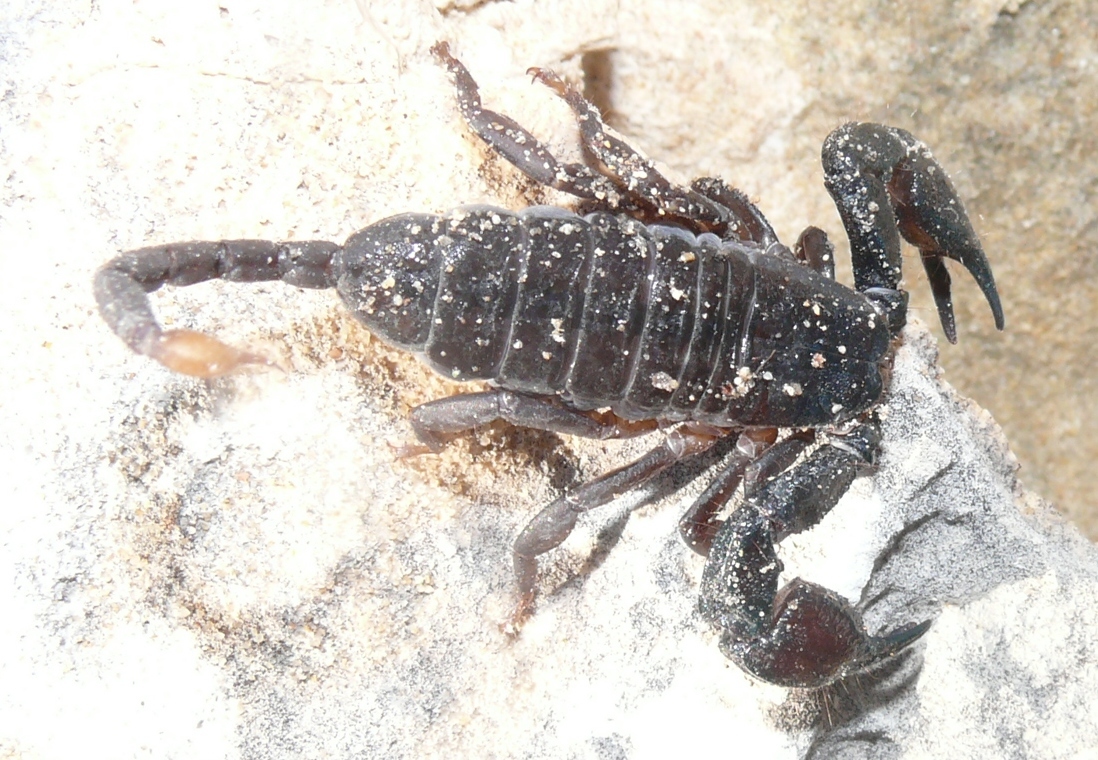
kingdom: Animalia
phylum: Arthropoda
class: Arachnida
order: Scorpiones
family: Hormuridae
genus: Opisthacanthus
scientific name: Opisthacanthus capensis
